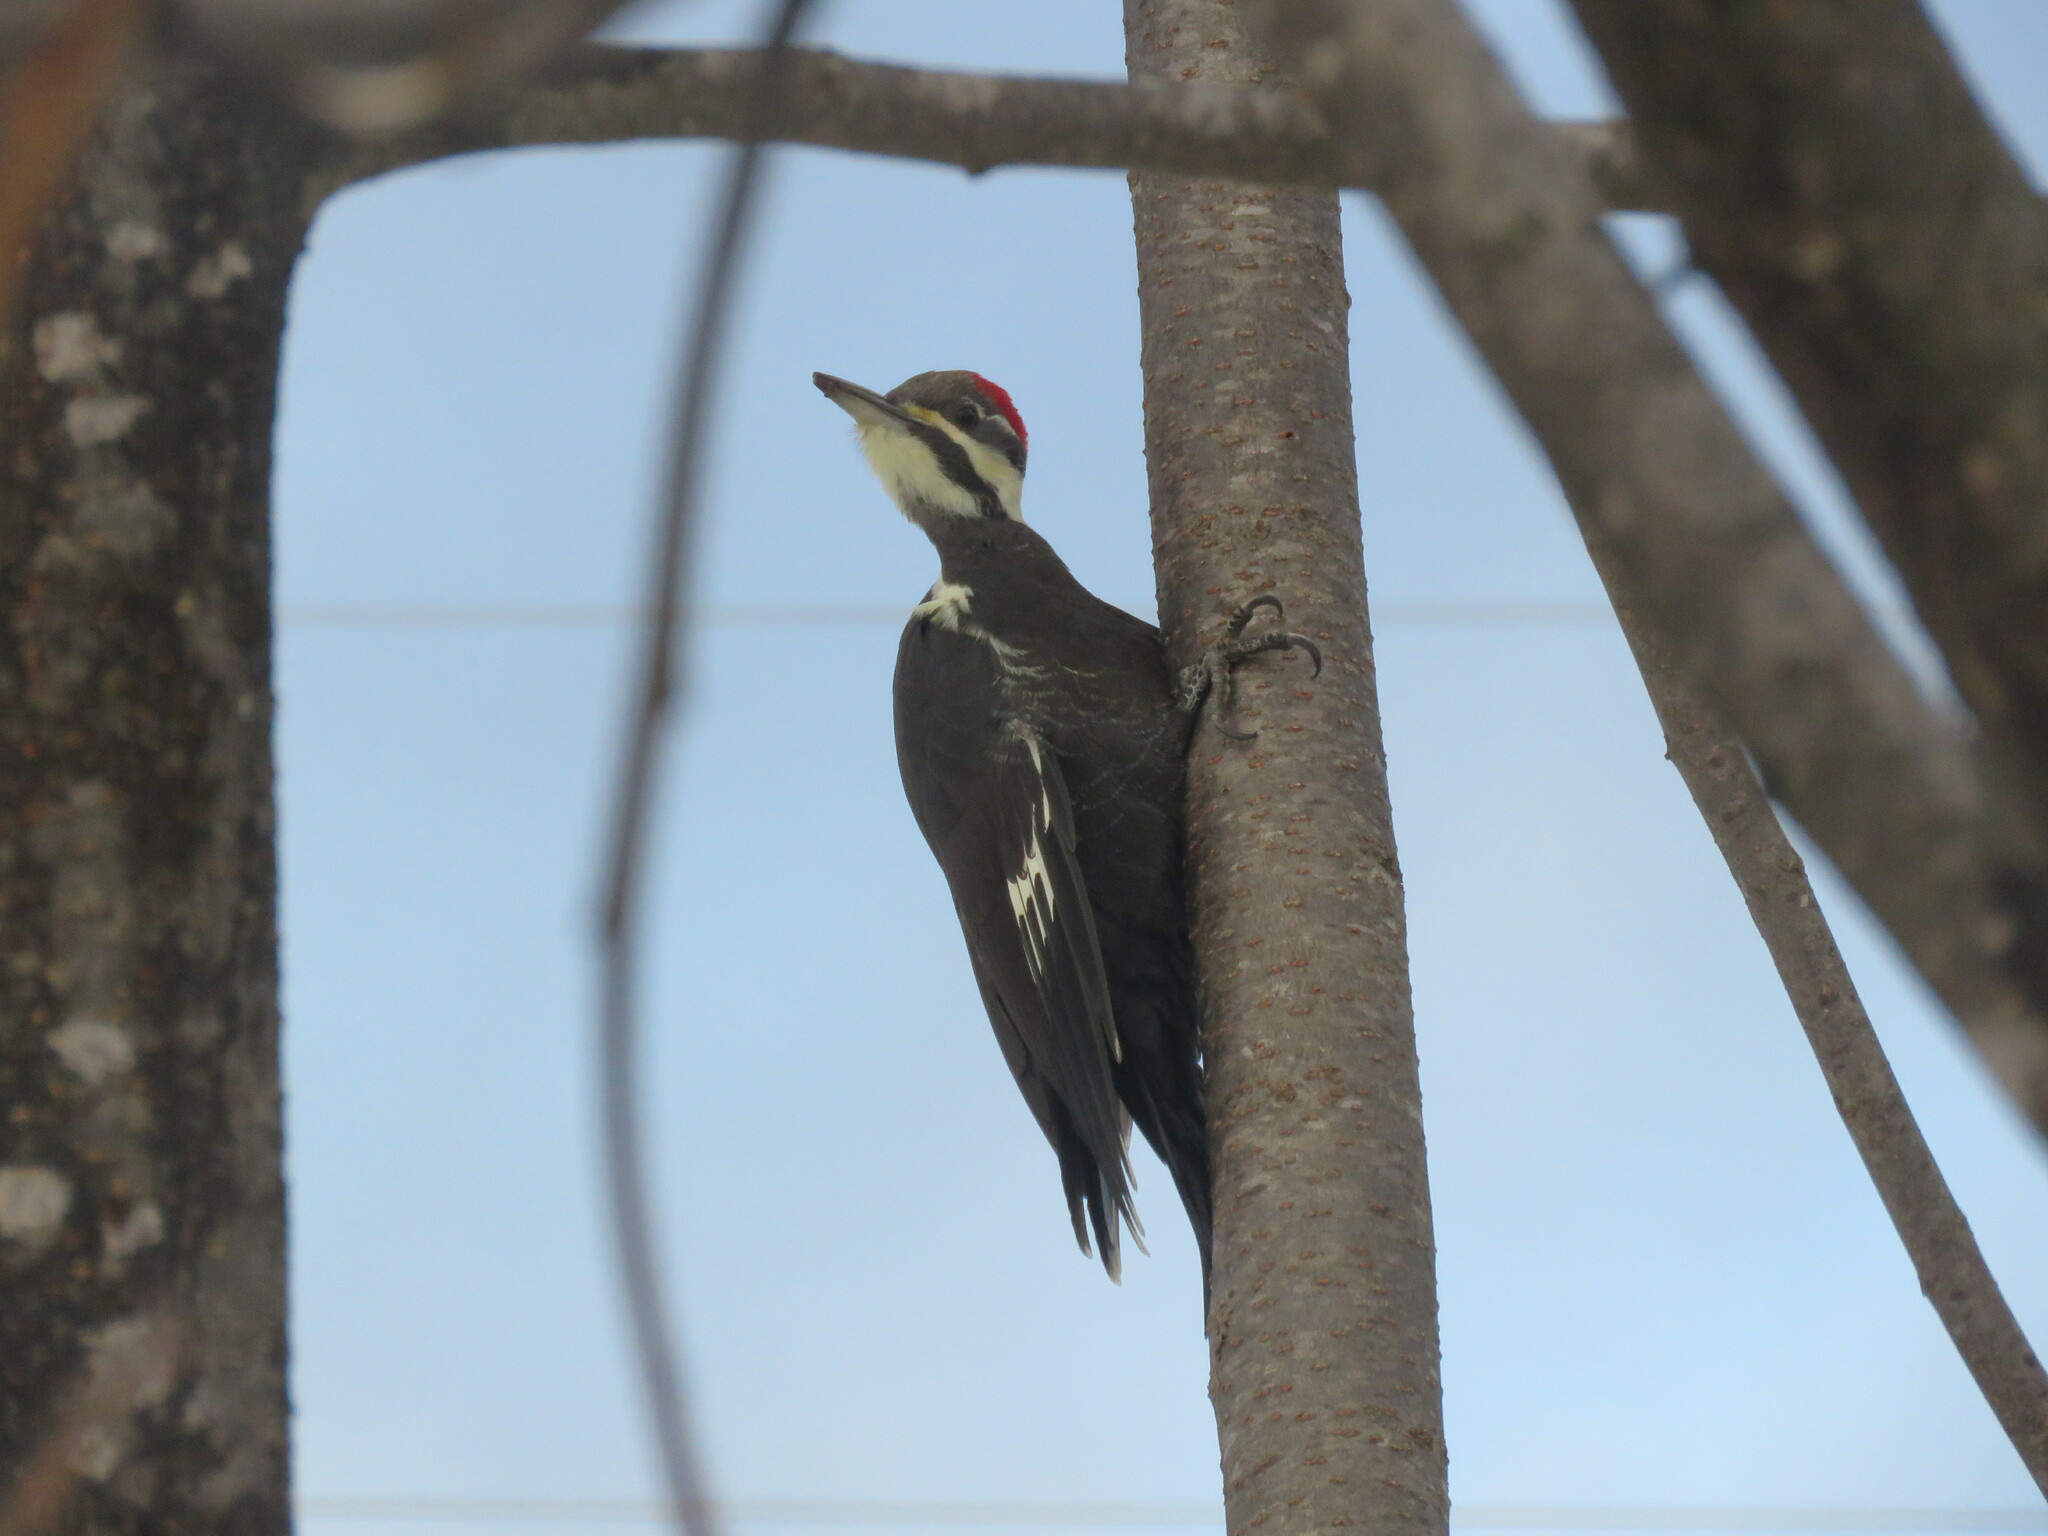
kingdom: Animalia
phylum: Chordata
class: Aves
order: Piciformes
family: Picidae
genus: Dryocopus
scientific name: Dryocopus pileatus
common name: Pileated woodpecker
